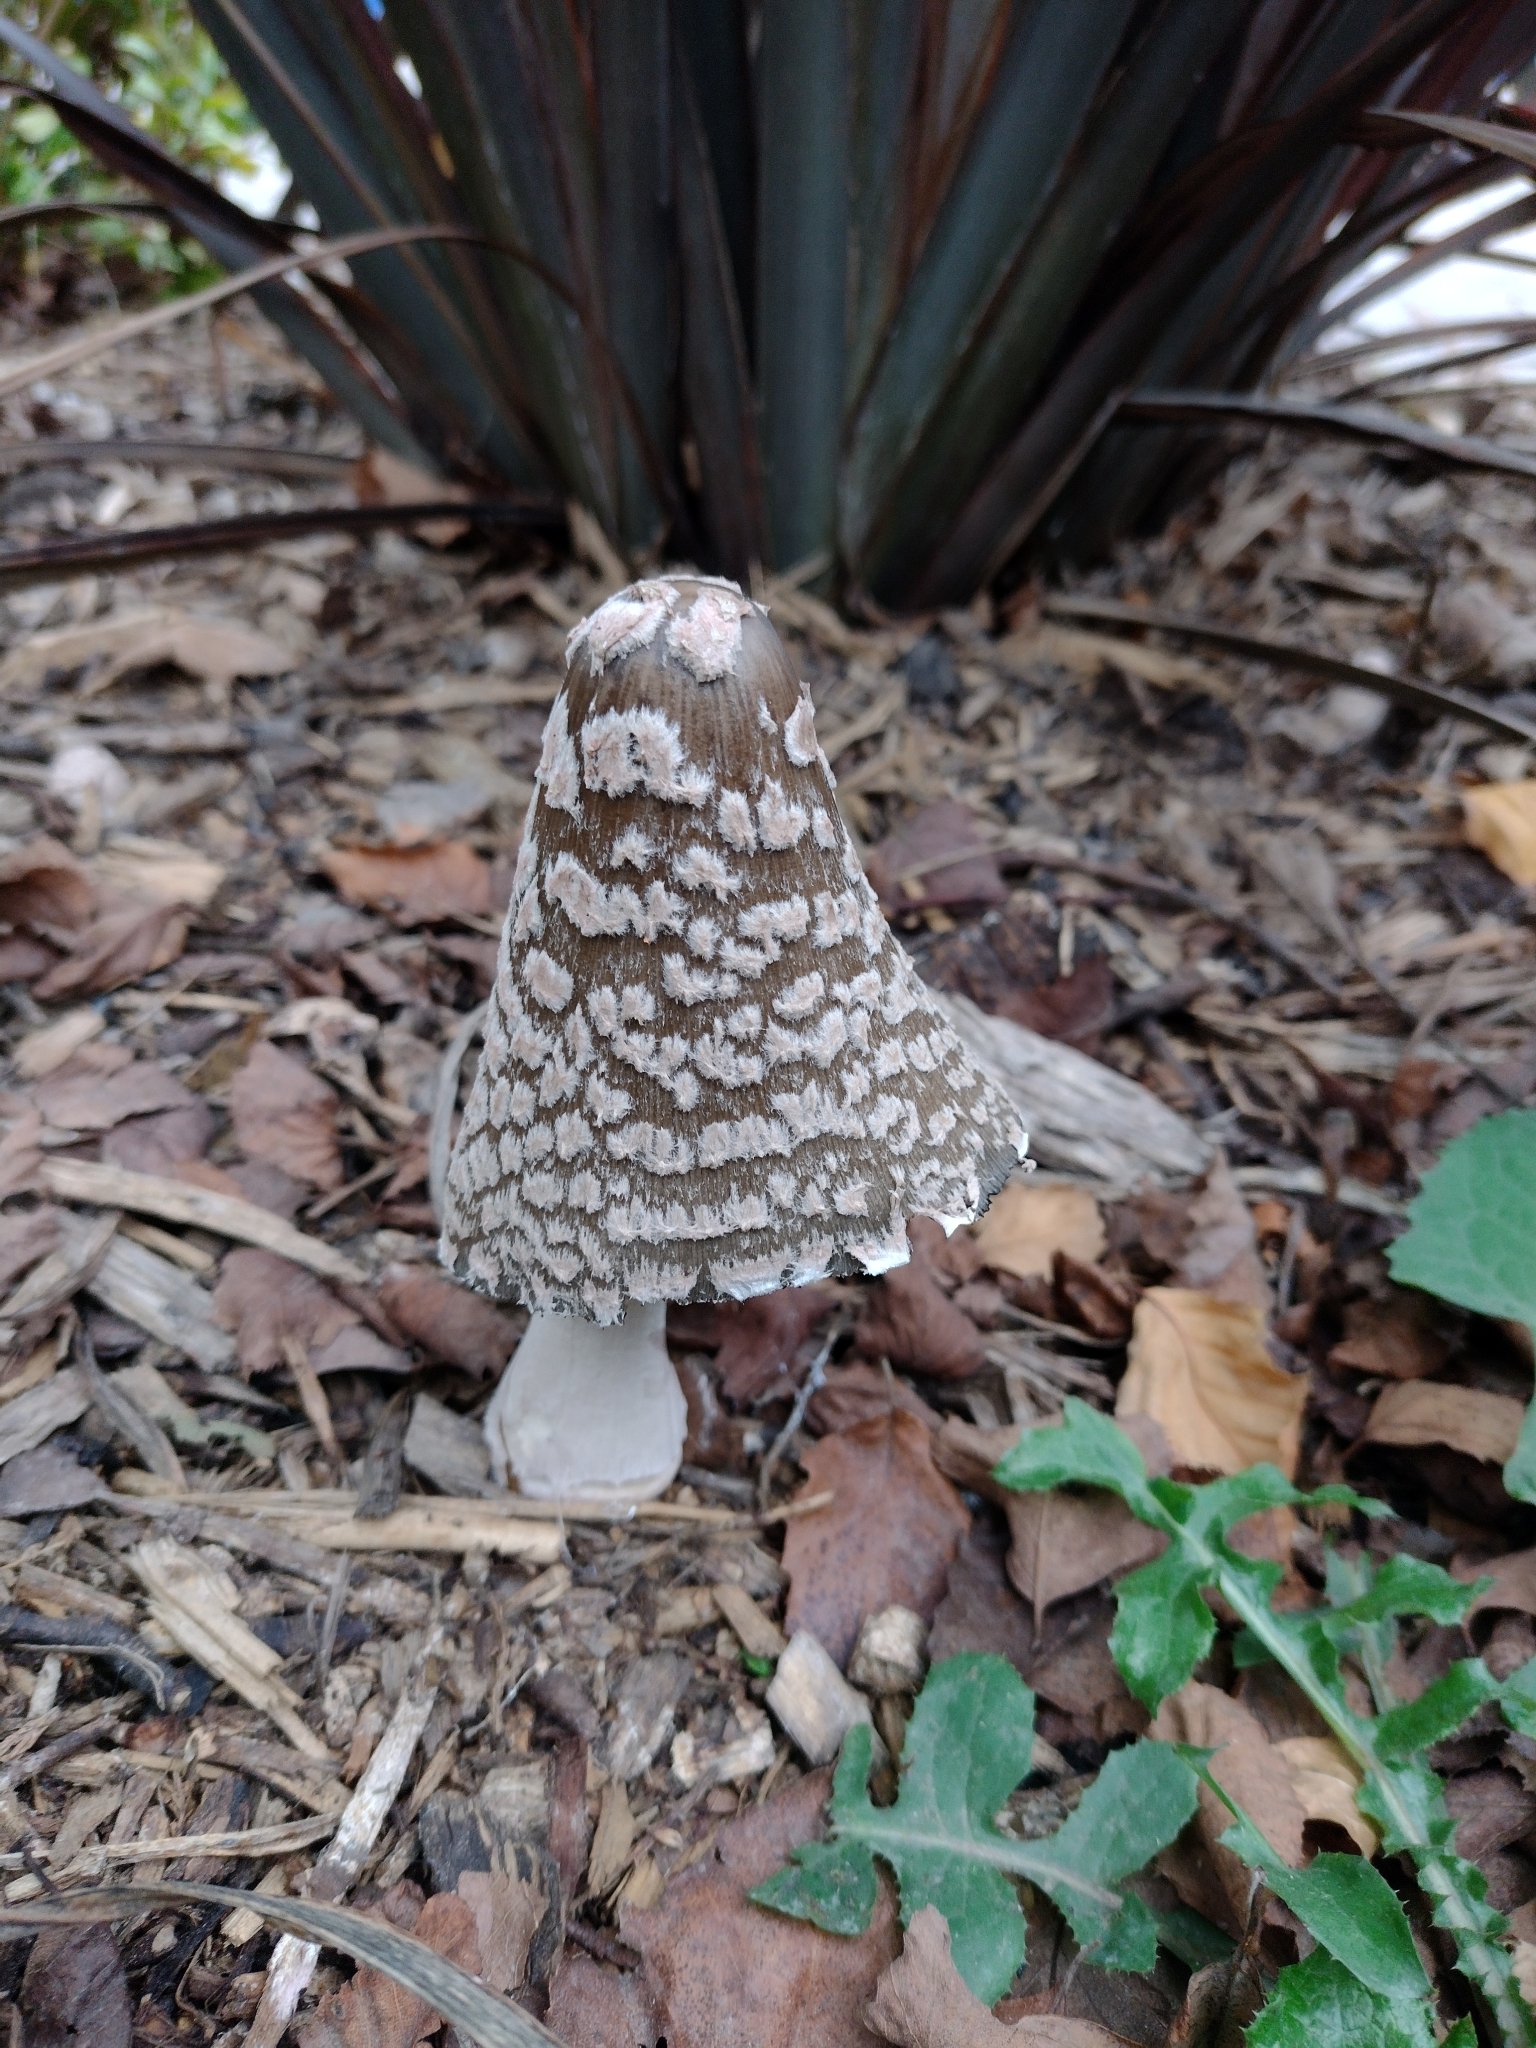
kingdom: Fungi
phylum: Basidiomycota
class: Agaricomycetes
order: Agaricales
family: Psathyrellaceae
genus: Coprinopsis
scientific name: Coprinopsis picacea
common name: Magpie inkcap
